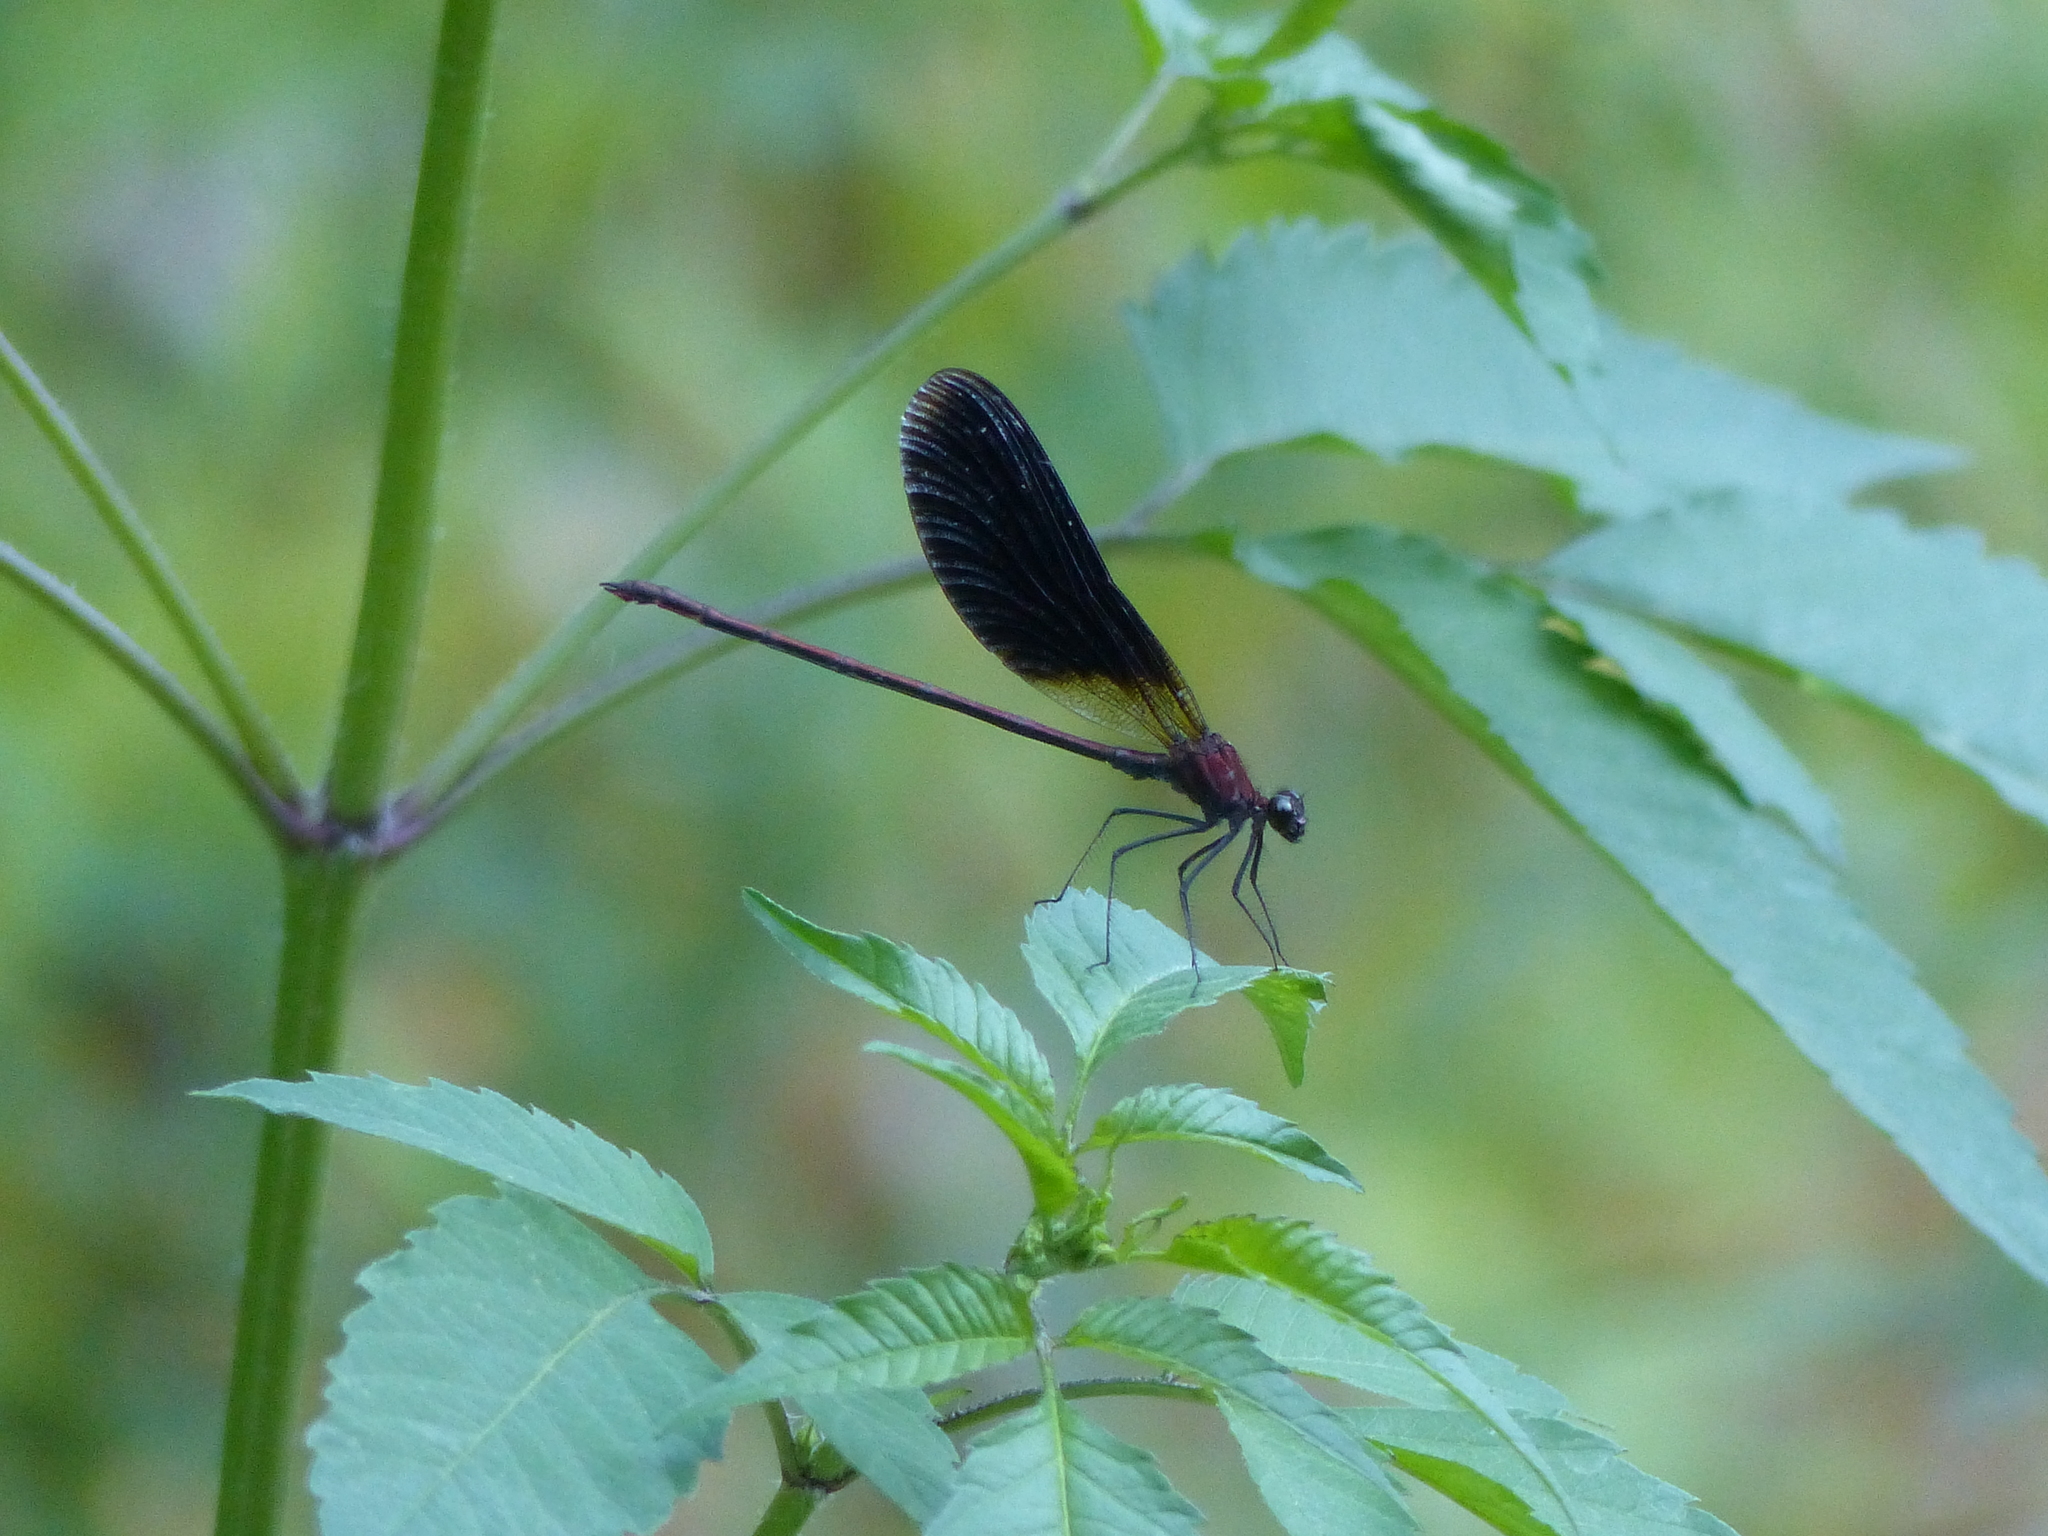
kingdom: Animalia
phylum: Arthropoda
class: Insecta
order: Odonata
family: Calopterygidae
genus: Calopteryx
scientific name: Calopteryx haemorrhoidalis
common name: Copper demoiselle
